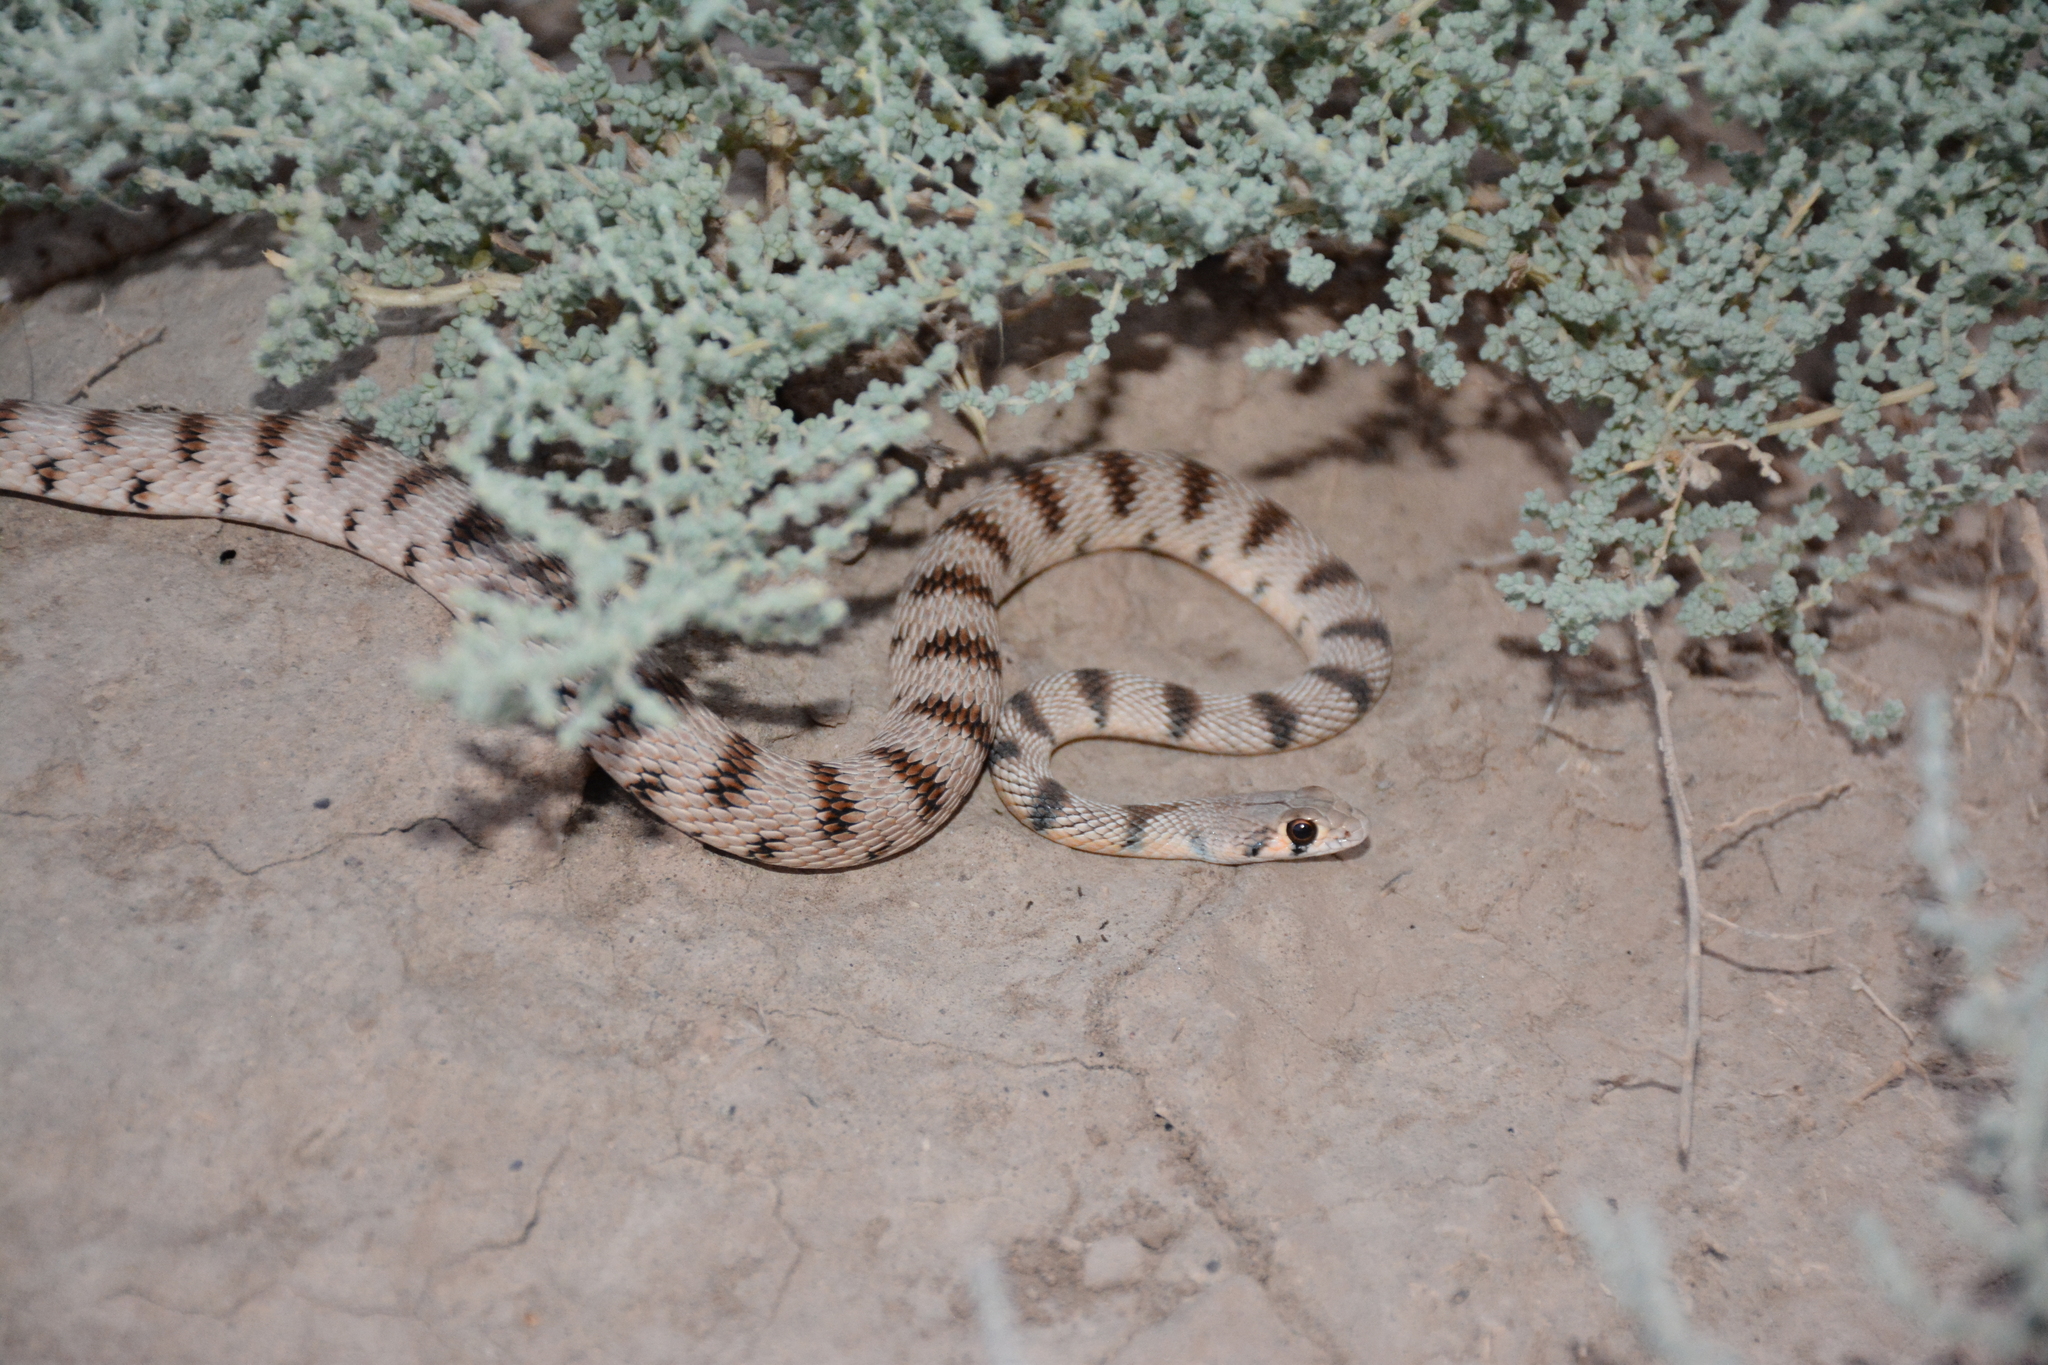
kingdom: Animalia
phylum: Chordata
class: Squamata
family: Colubridae
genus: Platyceps
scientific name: Platyceps karelini
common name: Spotted desert racer
